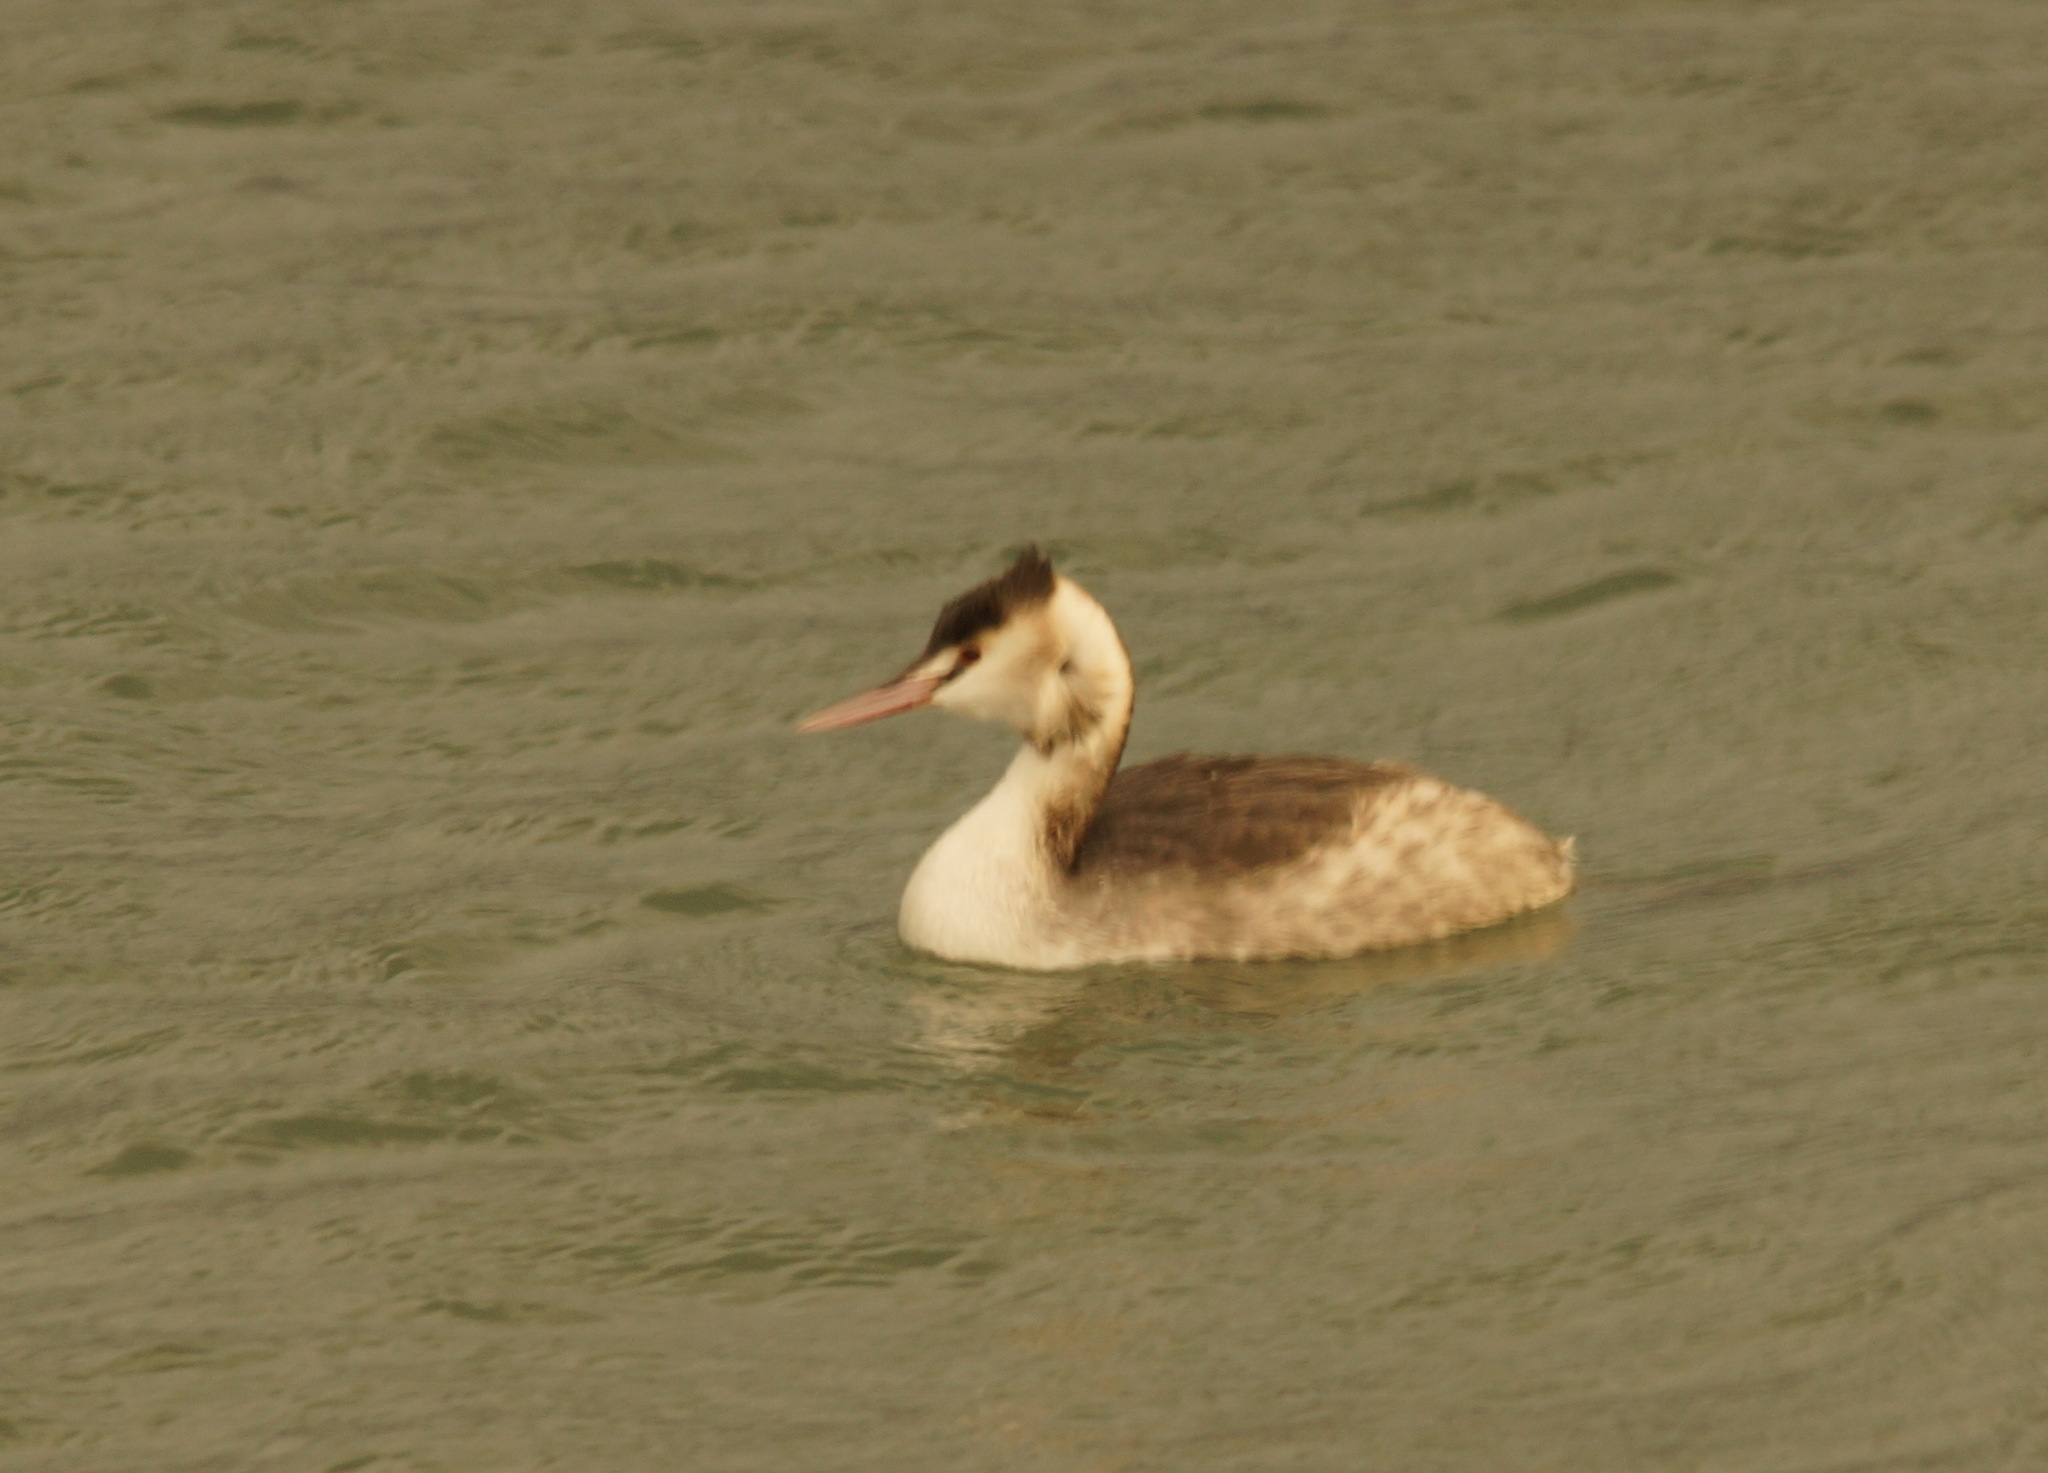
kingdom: Animalia
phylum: Chordata
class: Aves
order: Podicipediformes
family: Podicipedidae
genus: Podiceps
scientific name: Podiceps cristatus
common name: Great crested grebe
